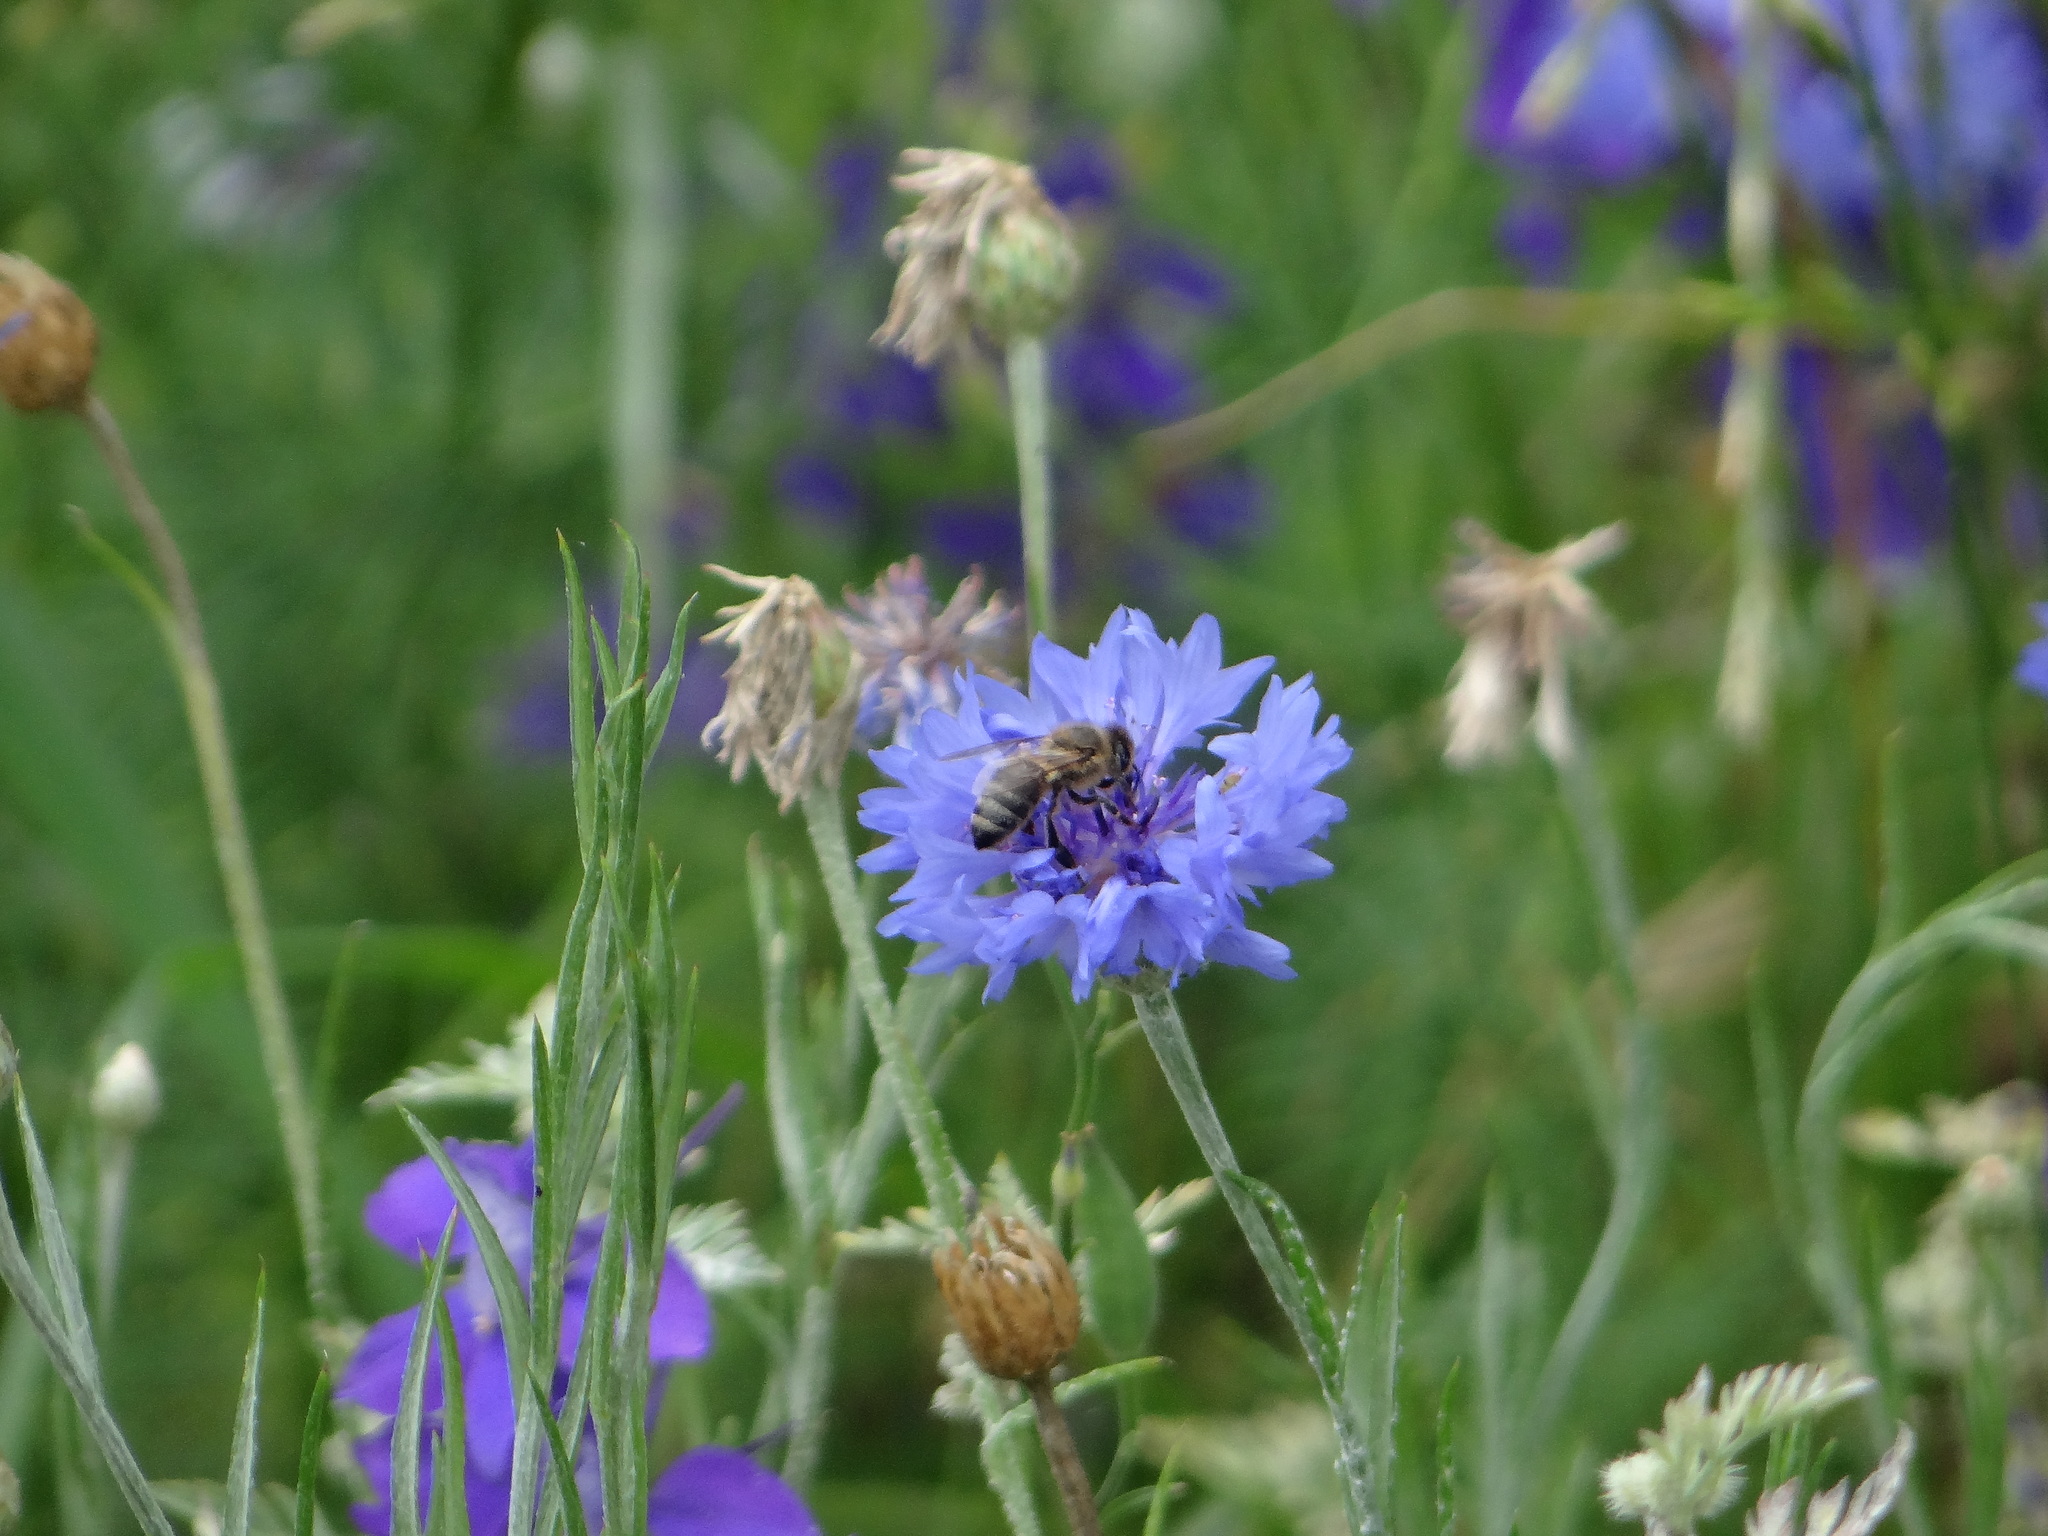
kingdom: Animalia
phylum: Arthropoda
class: Insecta
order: Hymenoptera
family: Apidae
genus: Apis
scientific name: Apis mellifera
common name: Honey bee
